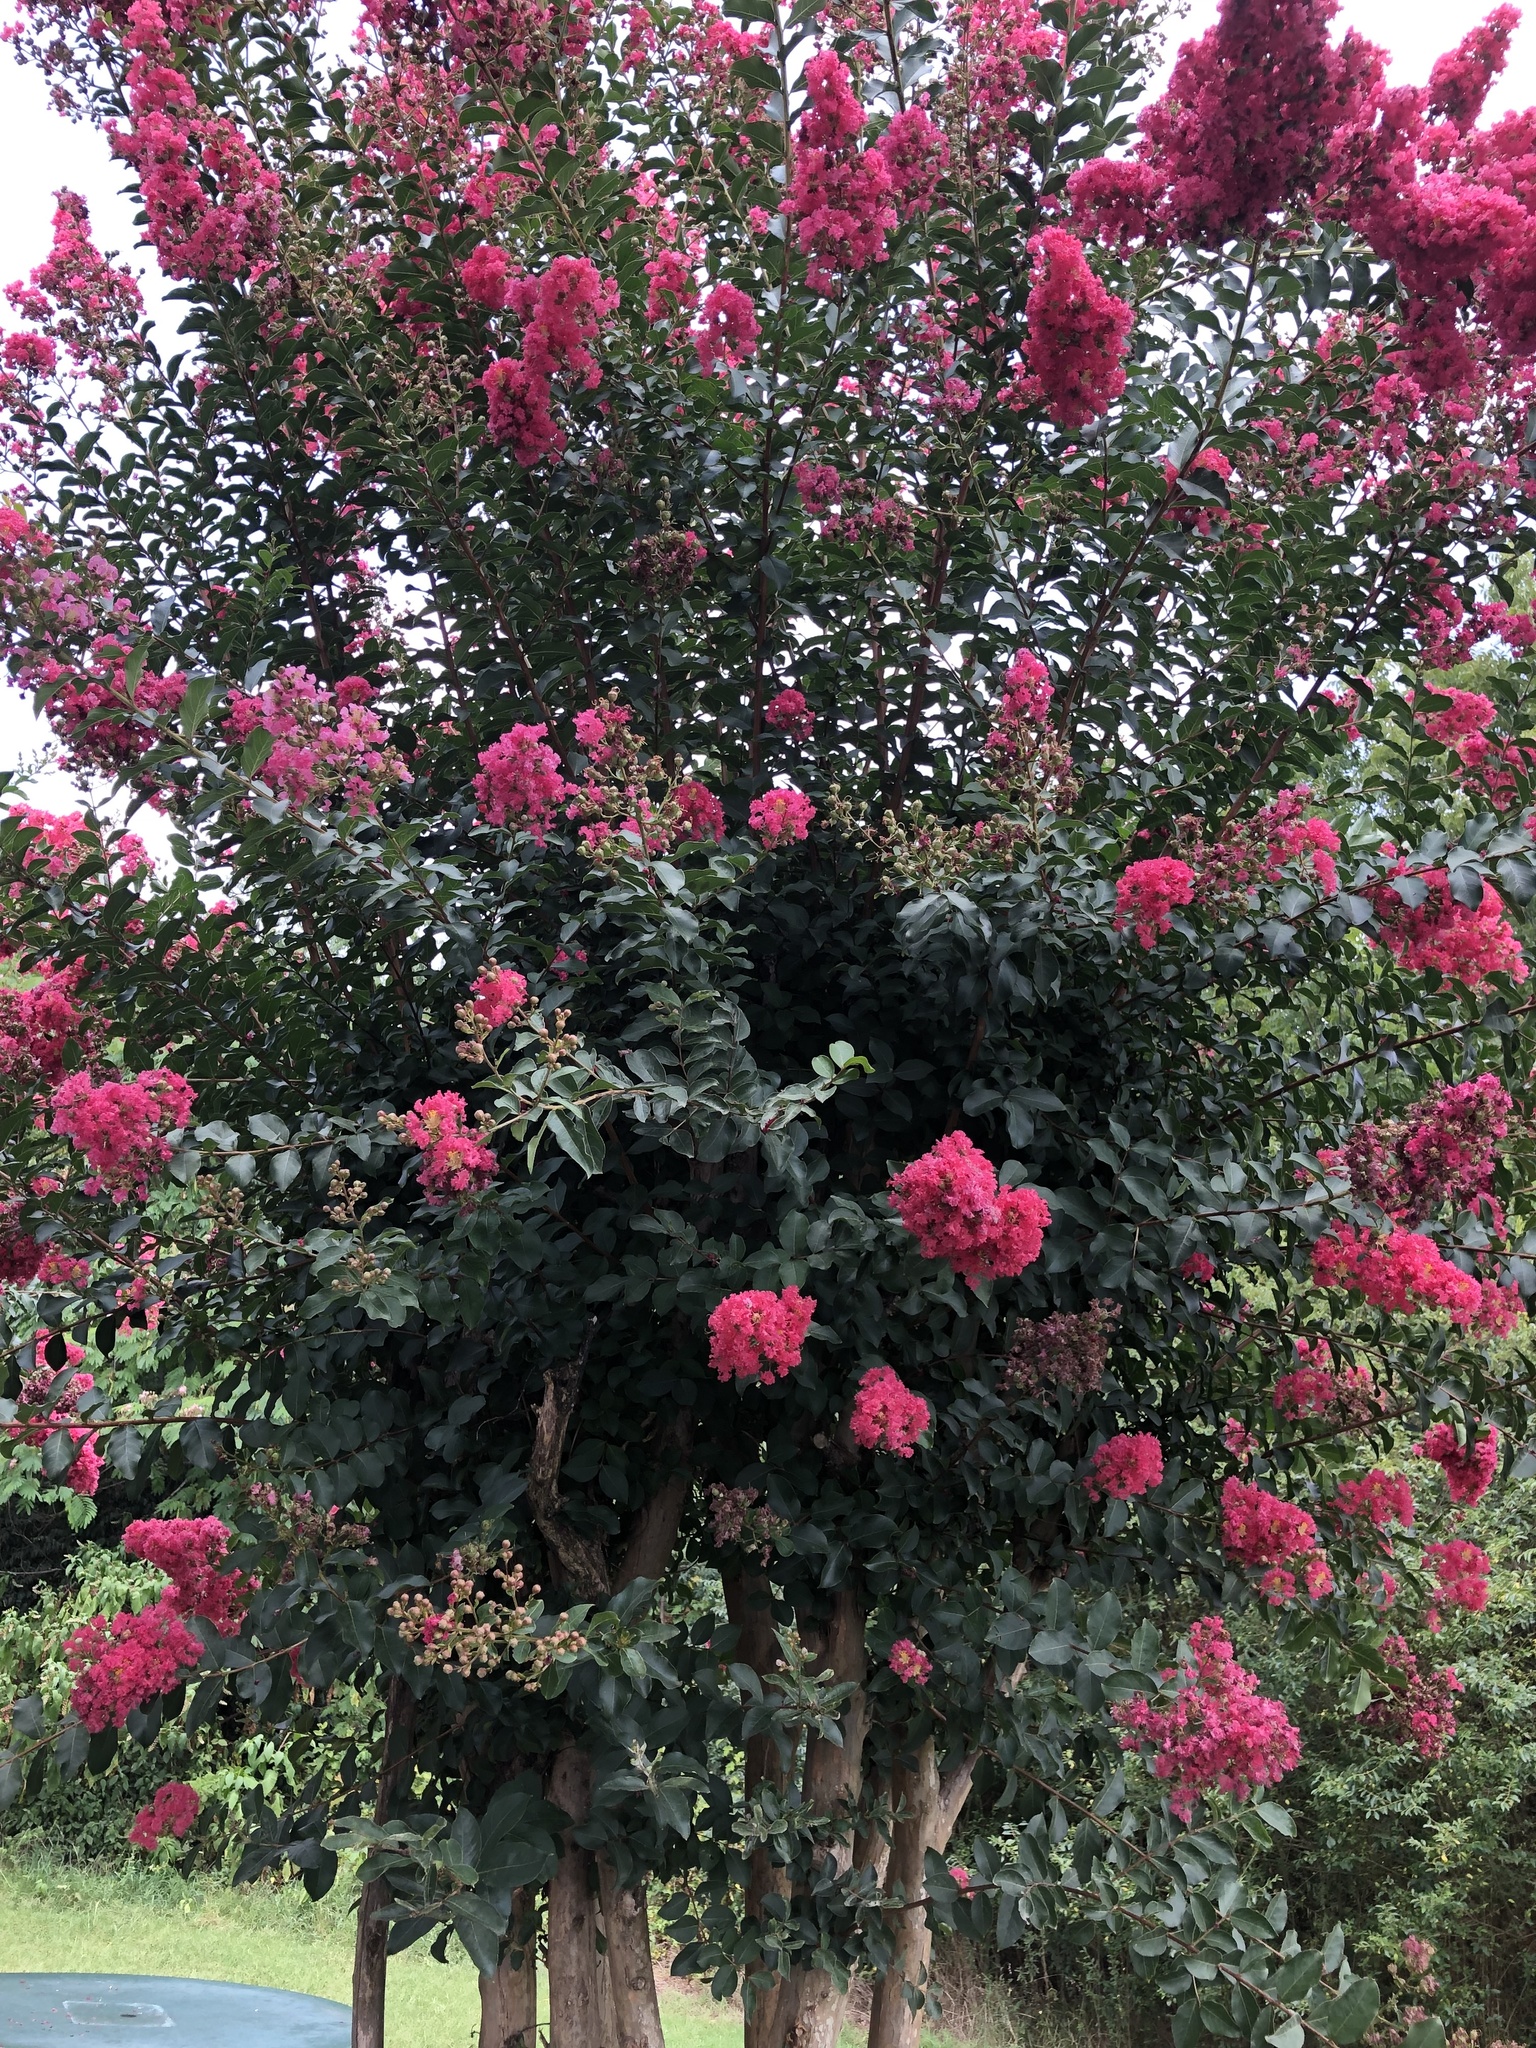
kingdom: Plantae
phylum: Tracheophyta
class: Magnoliopsida
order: Myrtales
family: Lythraceae
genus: Lagerstroemia
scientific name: Lagerstroemia indica
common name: Crape-myrtle
